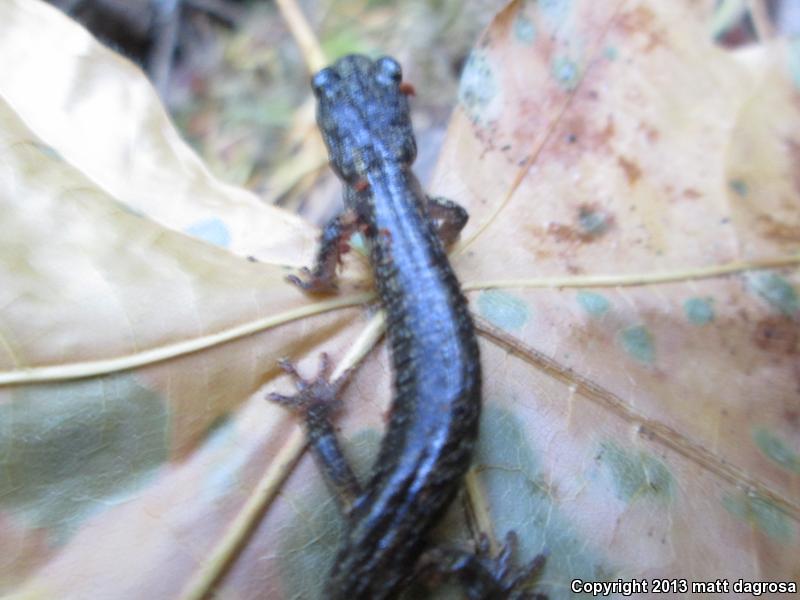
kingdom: Animalia
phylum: Chordata
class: Amphibia
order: Caudata
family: Plethodontidae
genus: Aneides
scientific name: Aneides ferreus
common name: Clouded salamander
